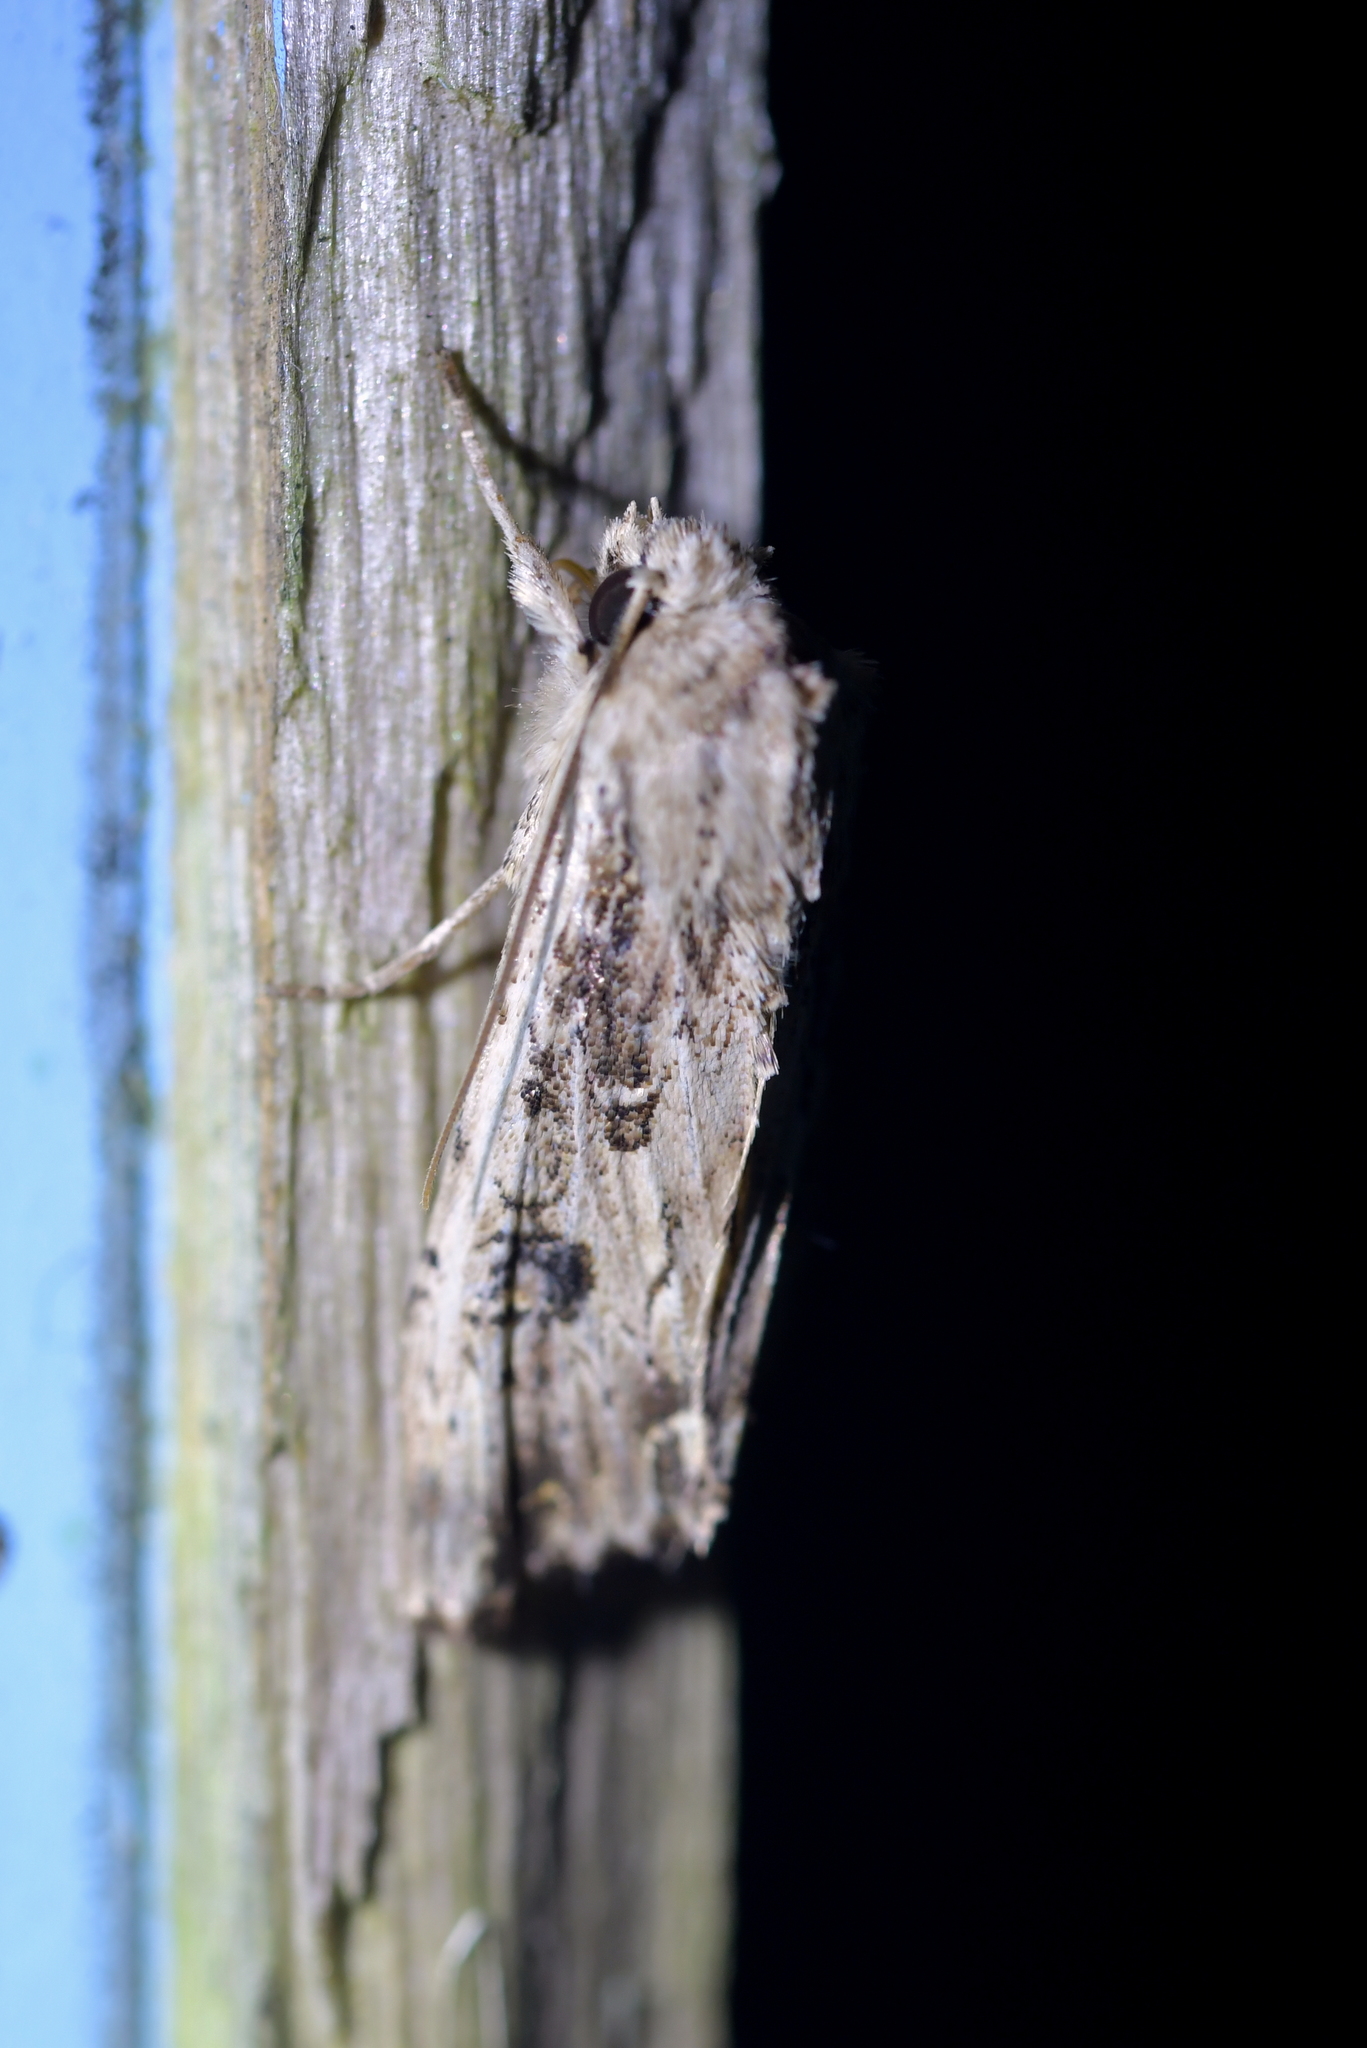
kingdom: Animalia
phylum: Arthropoda
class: Insecta
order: Lepidoptera
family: Noctuidae
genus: Ichneutica
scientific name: Ichneutica lignana
